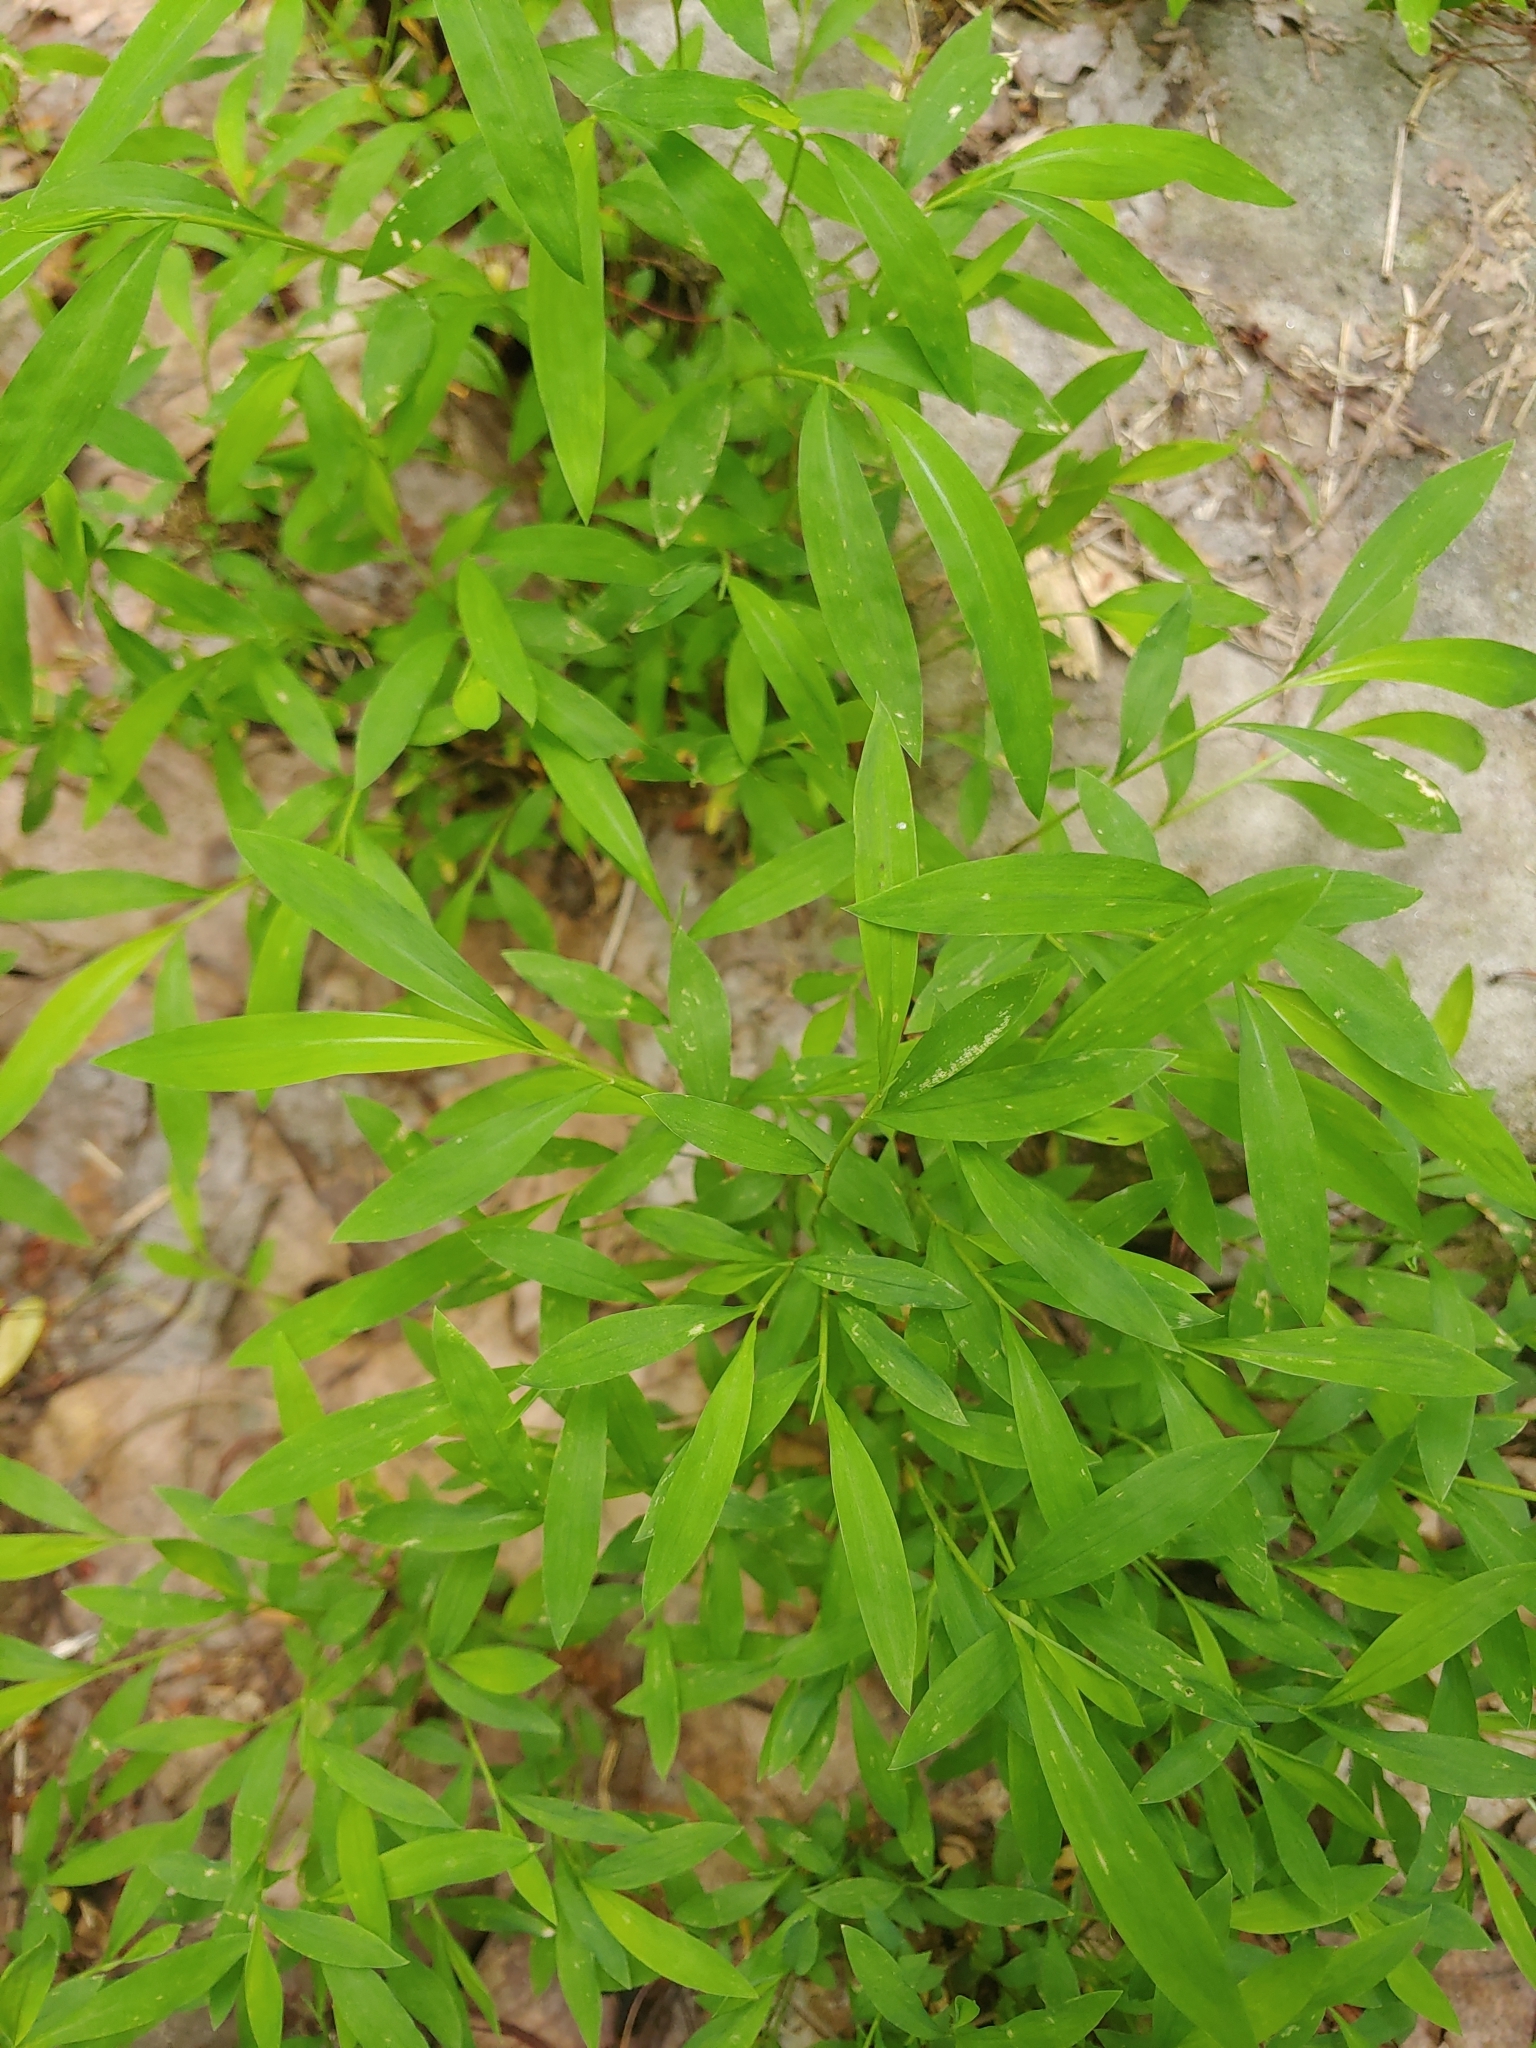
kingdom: Plantae
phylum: Tracheophyta
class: Liliopsida
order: Poales
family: Poaceae
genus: Microstegium
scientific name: Microstegium vimineum
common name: Japanese stiltgrass
